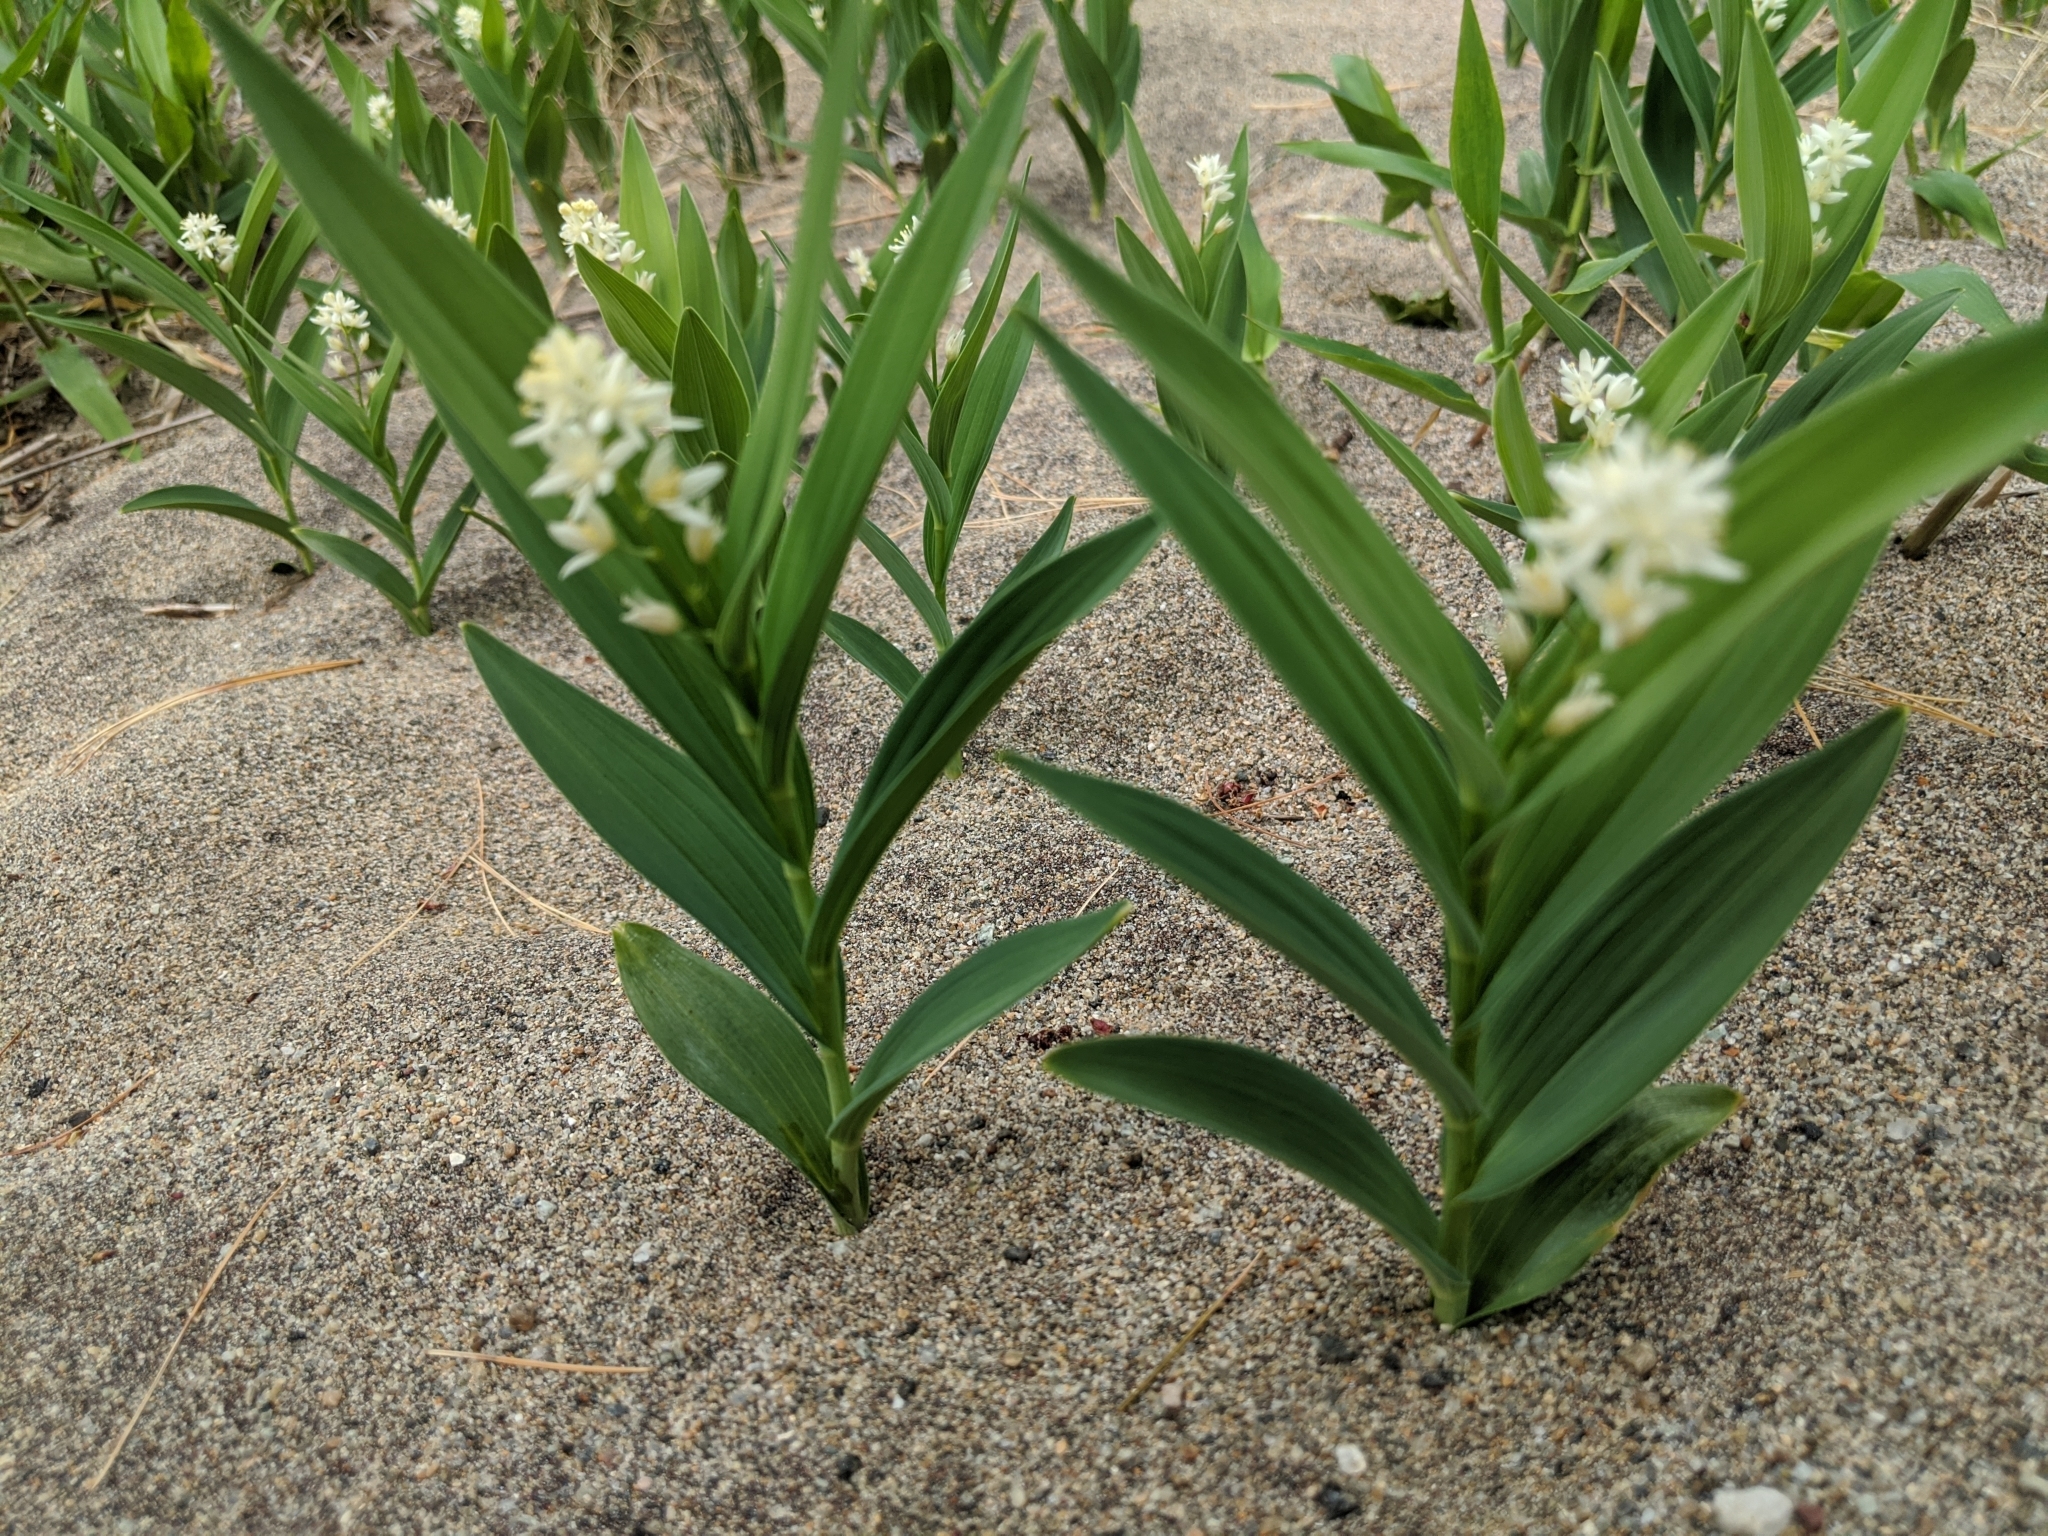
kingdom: Plantae
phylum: Tracheophyta
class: Liliopsida
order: Asparagales
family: Asparagaceae
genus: Maianthemum
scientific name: Maianthemum stellatum
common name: Little false solomon's seal
